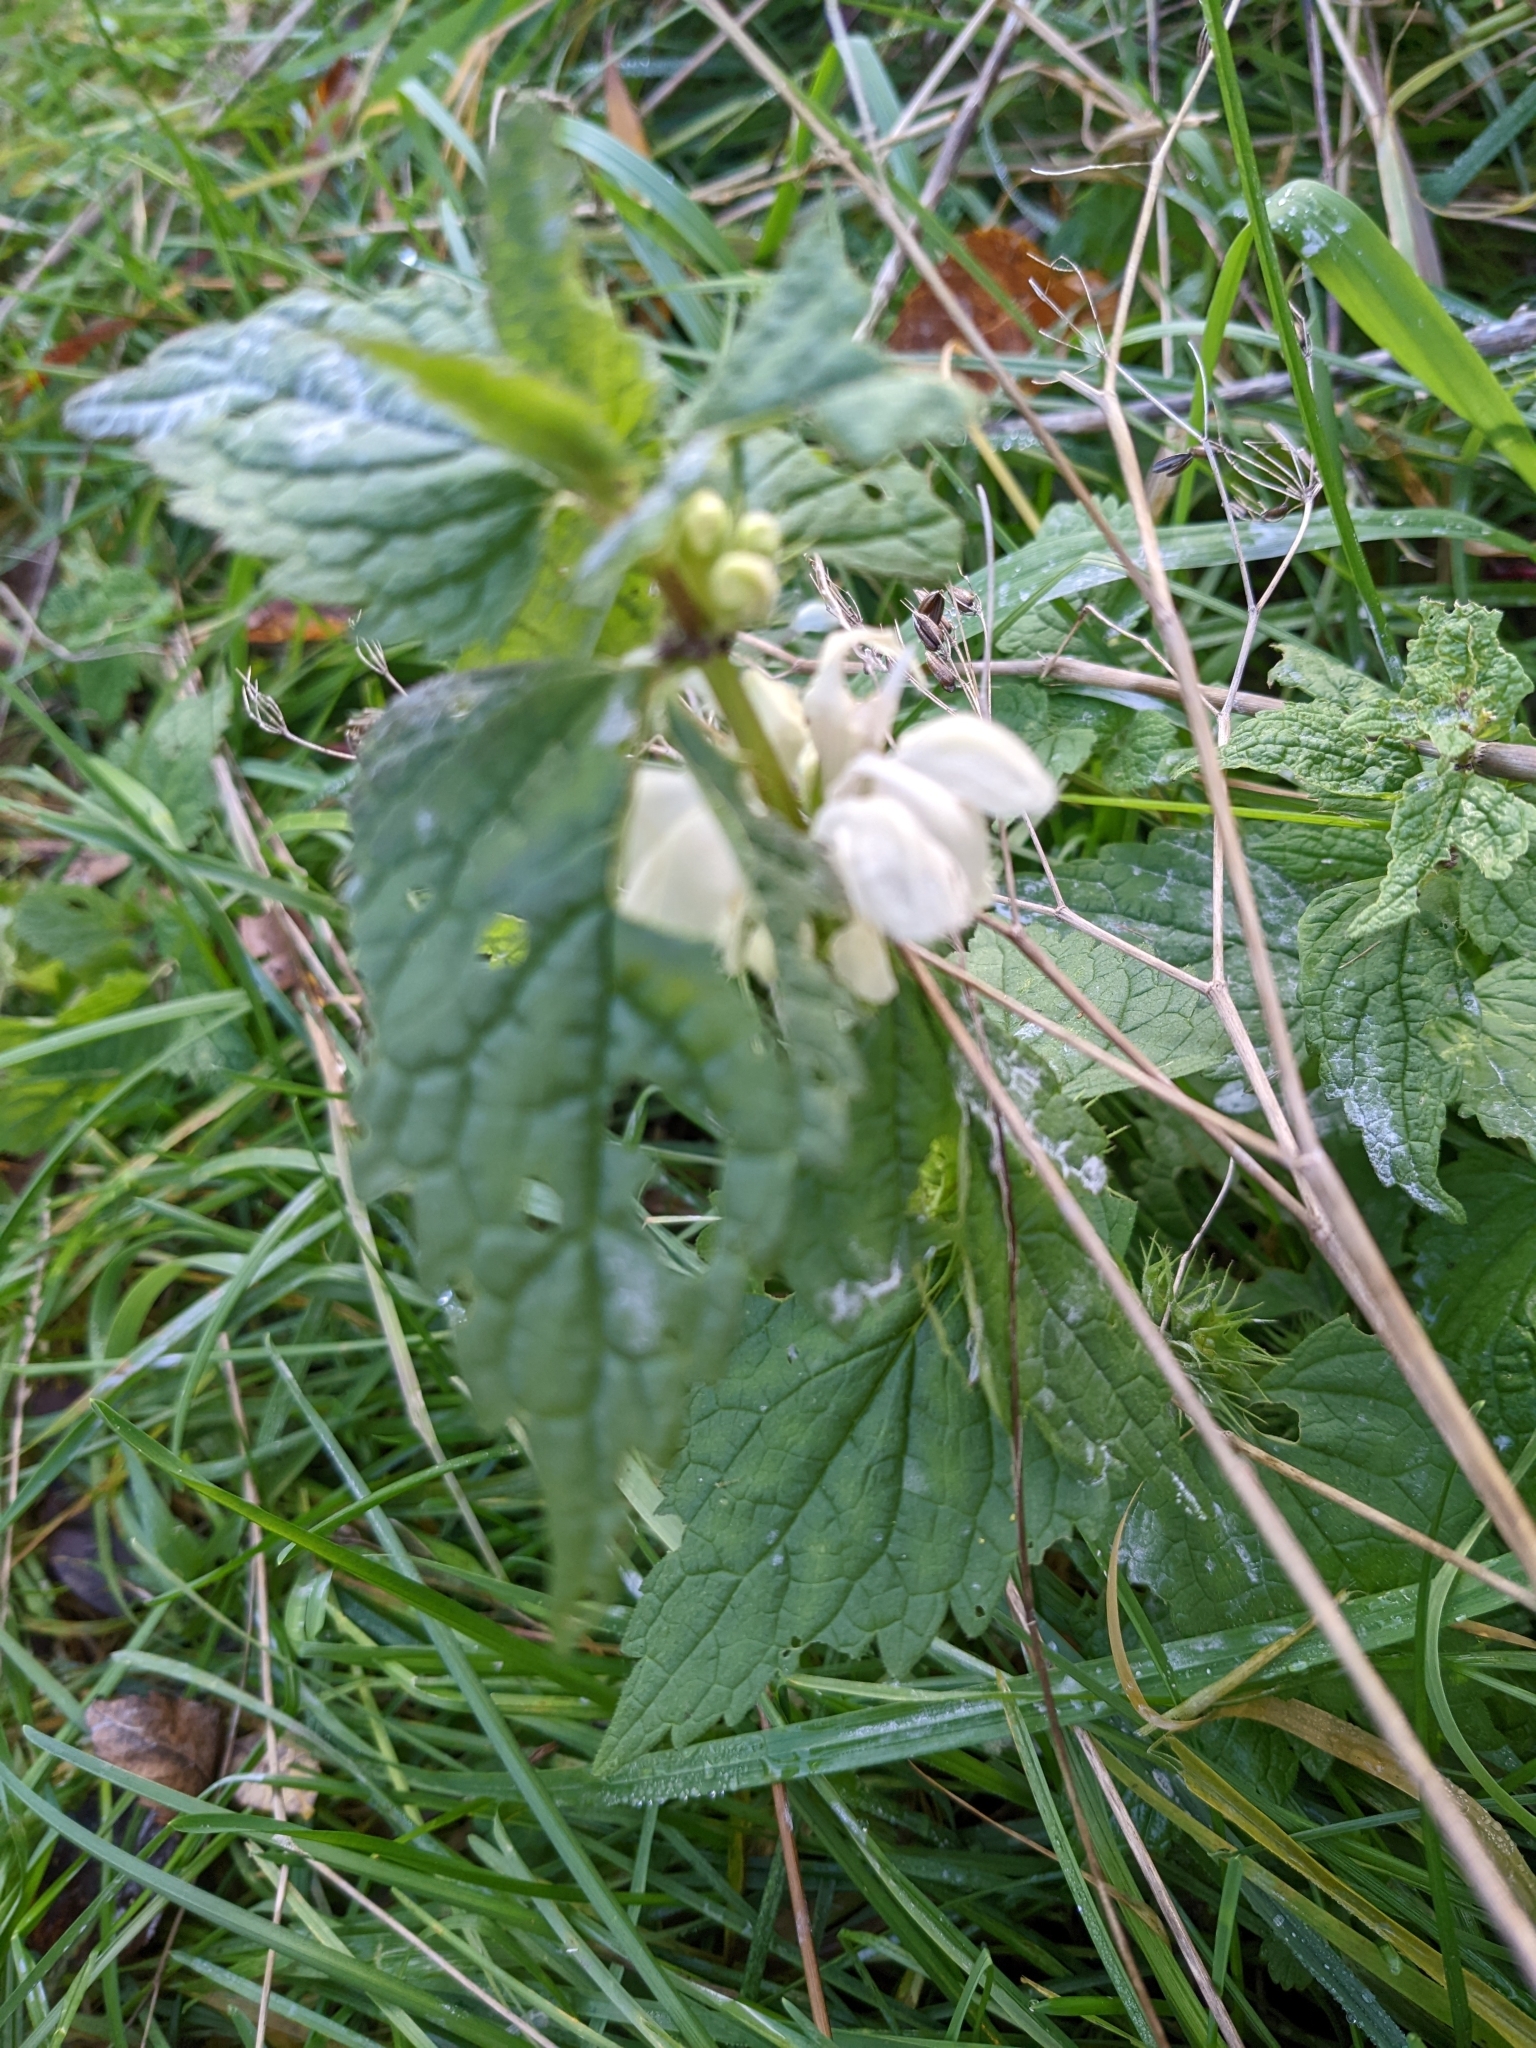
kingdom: Plantae
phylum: Tracheophyta
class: Magnoliopsida
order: Lamiales
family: Lamiaceae
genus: Lamium
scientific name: Lamium album
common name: White dead-nettle
